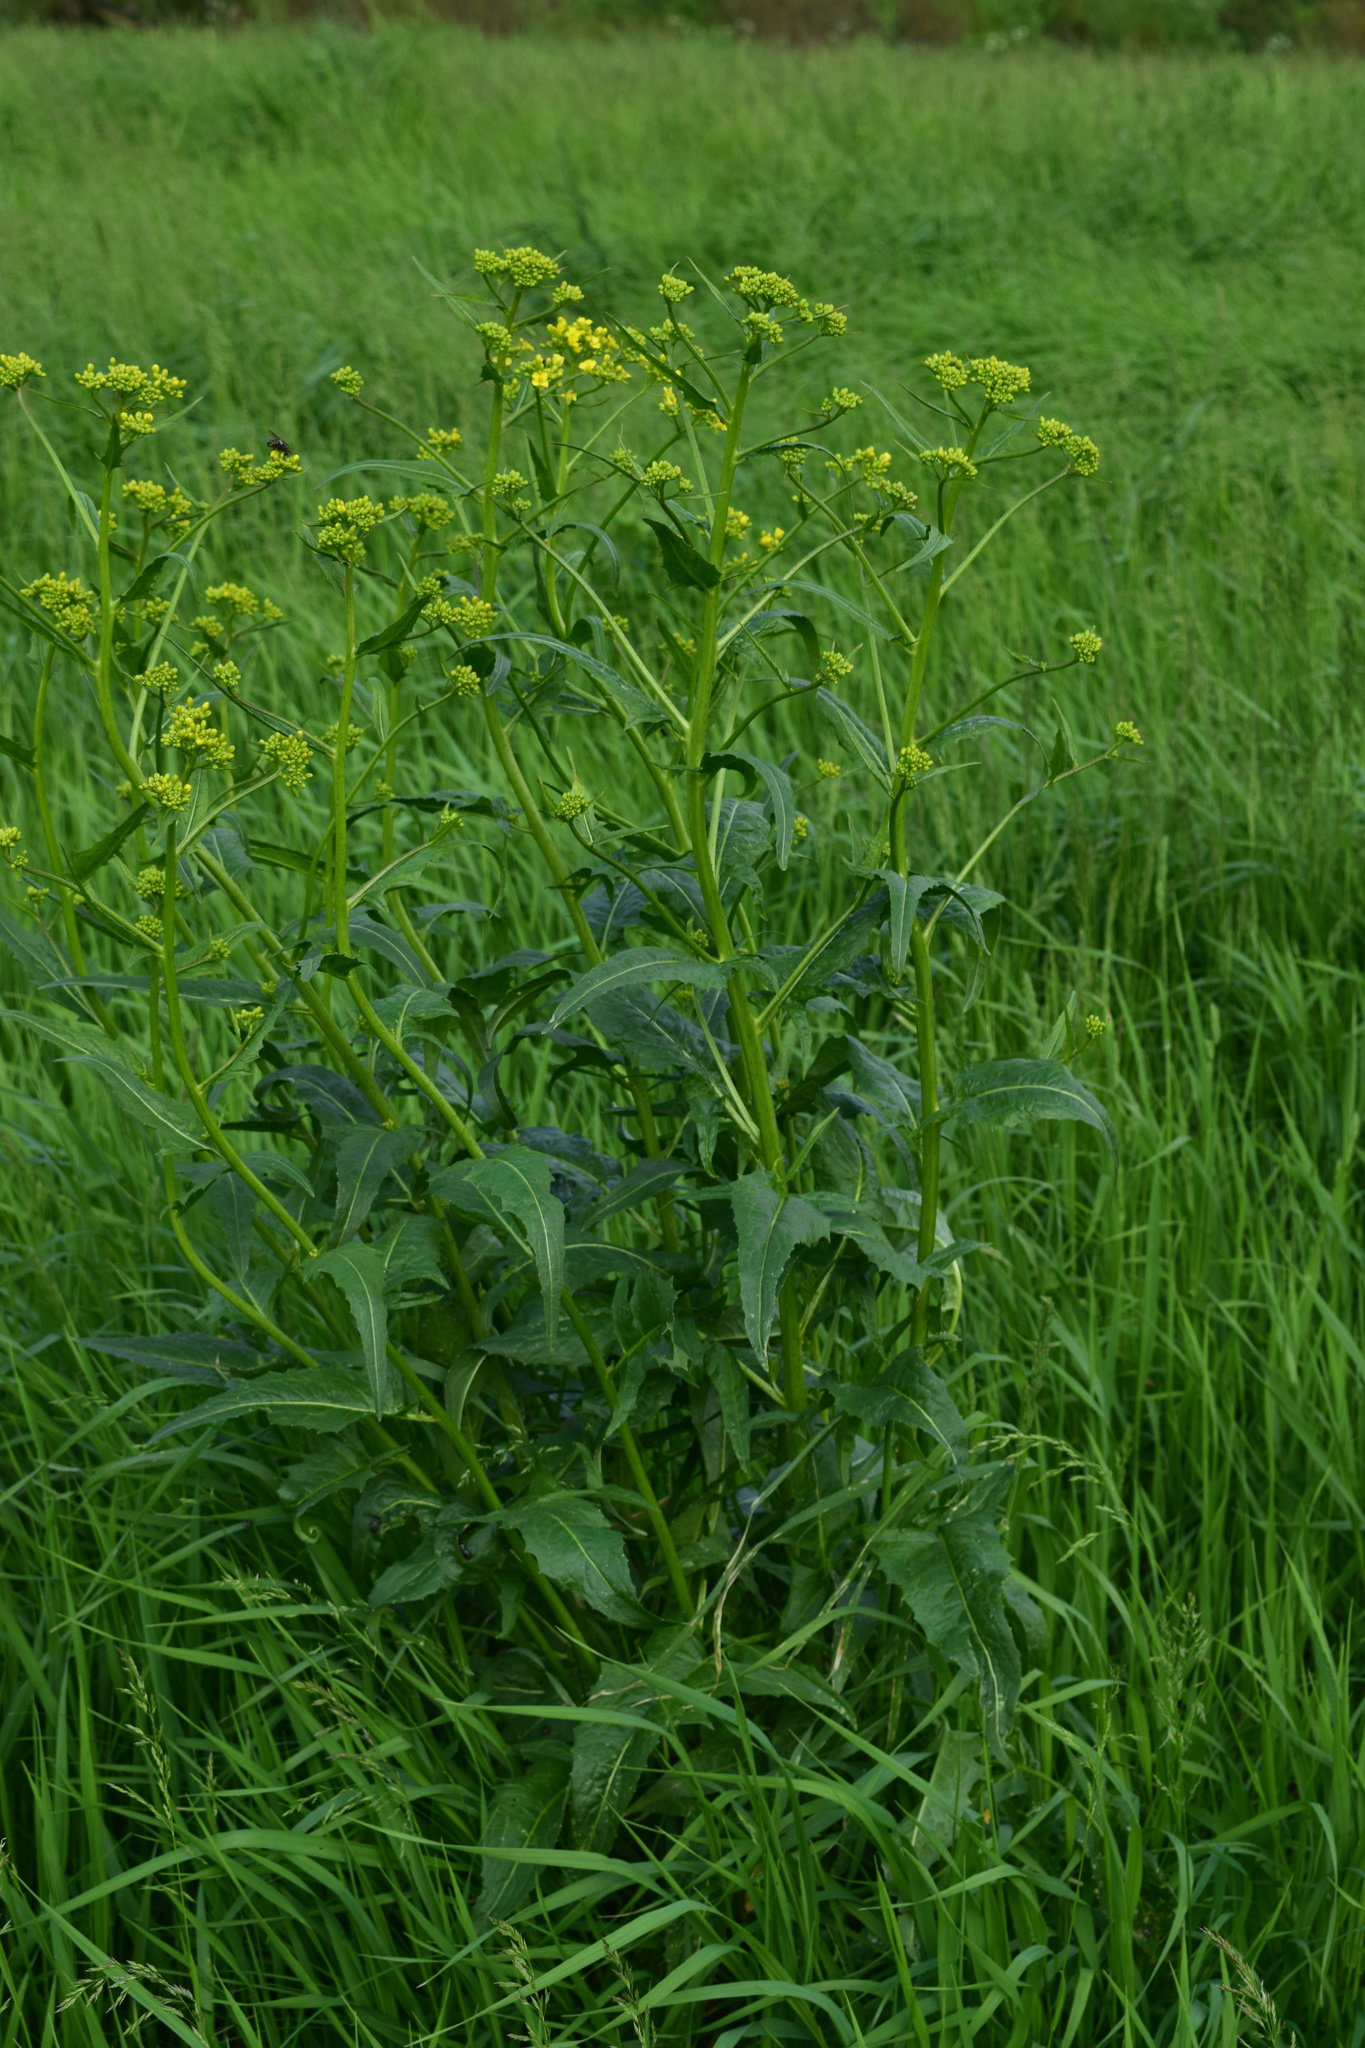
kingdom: Plantae
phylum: Tracheophyta
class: Magnoliopsida
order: Brassicales
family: Brassicaceae
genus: Bunias
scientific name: Bunias orientalis
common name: Warty-cabbage
